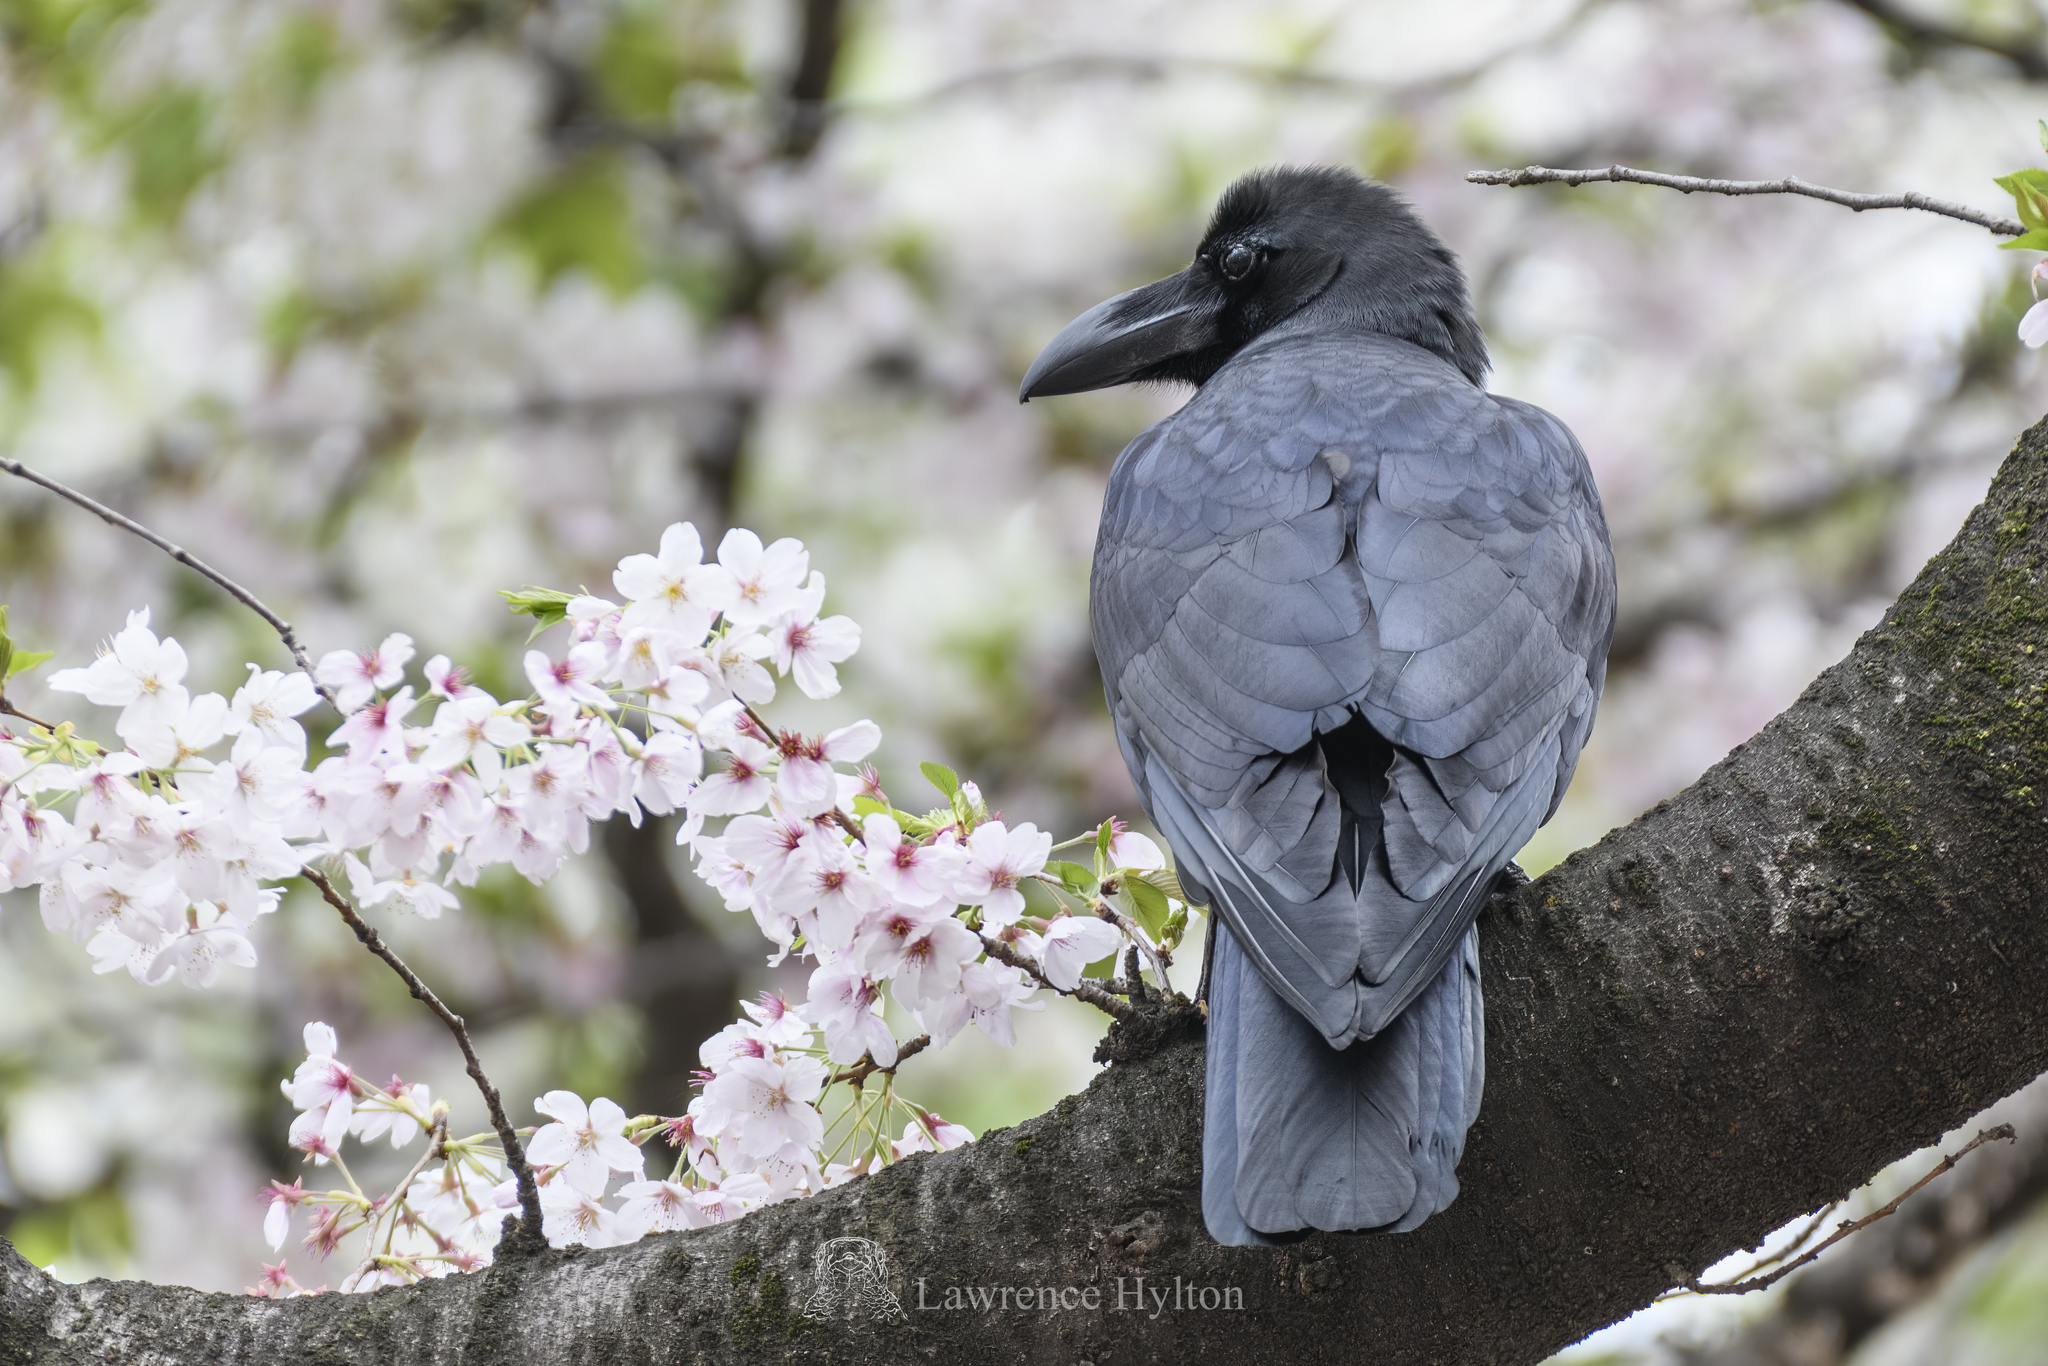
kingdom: Animalia
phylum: Chordata
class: Aves
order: Passeriformes
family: Corvidae
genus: Corvus
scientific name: Corvus macrorhynchos
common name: Large-billed crow
